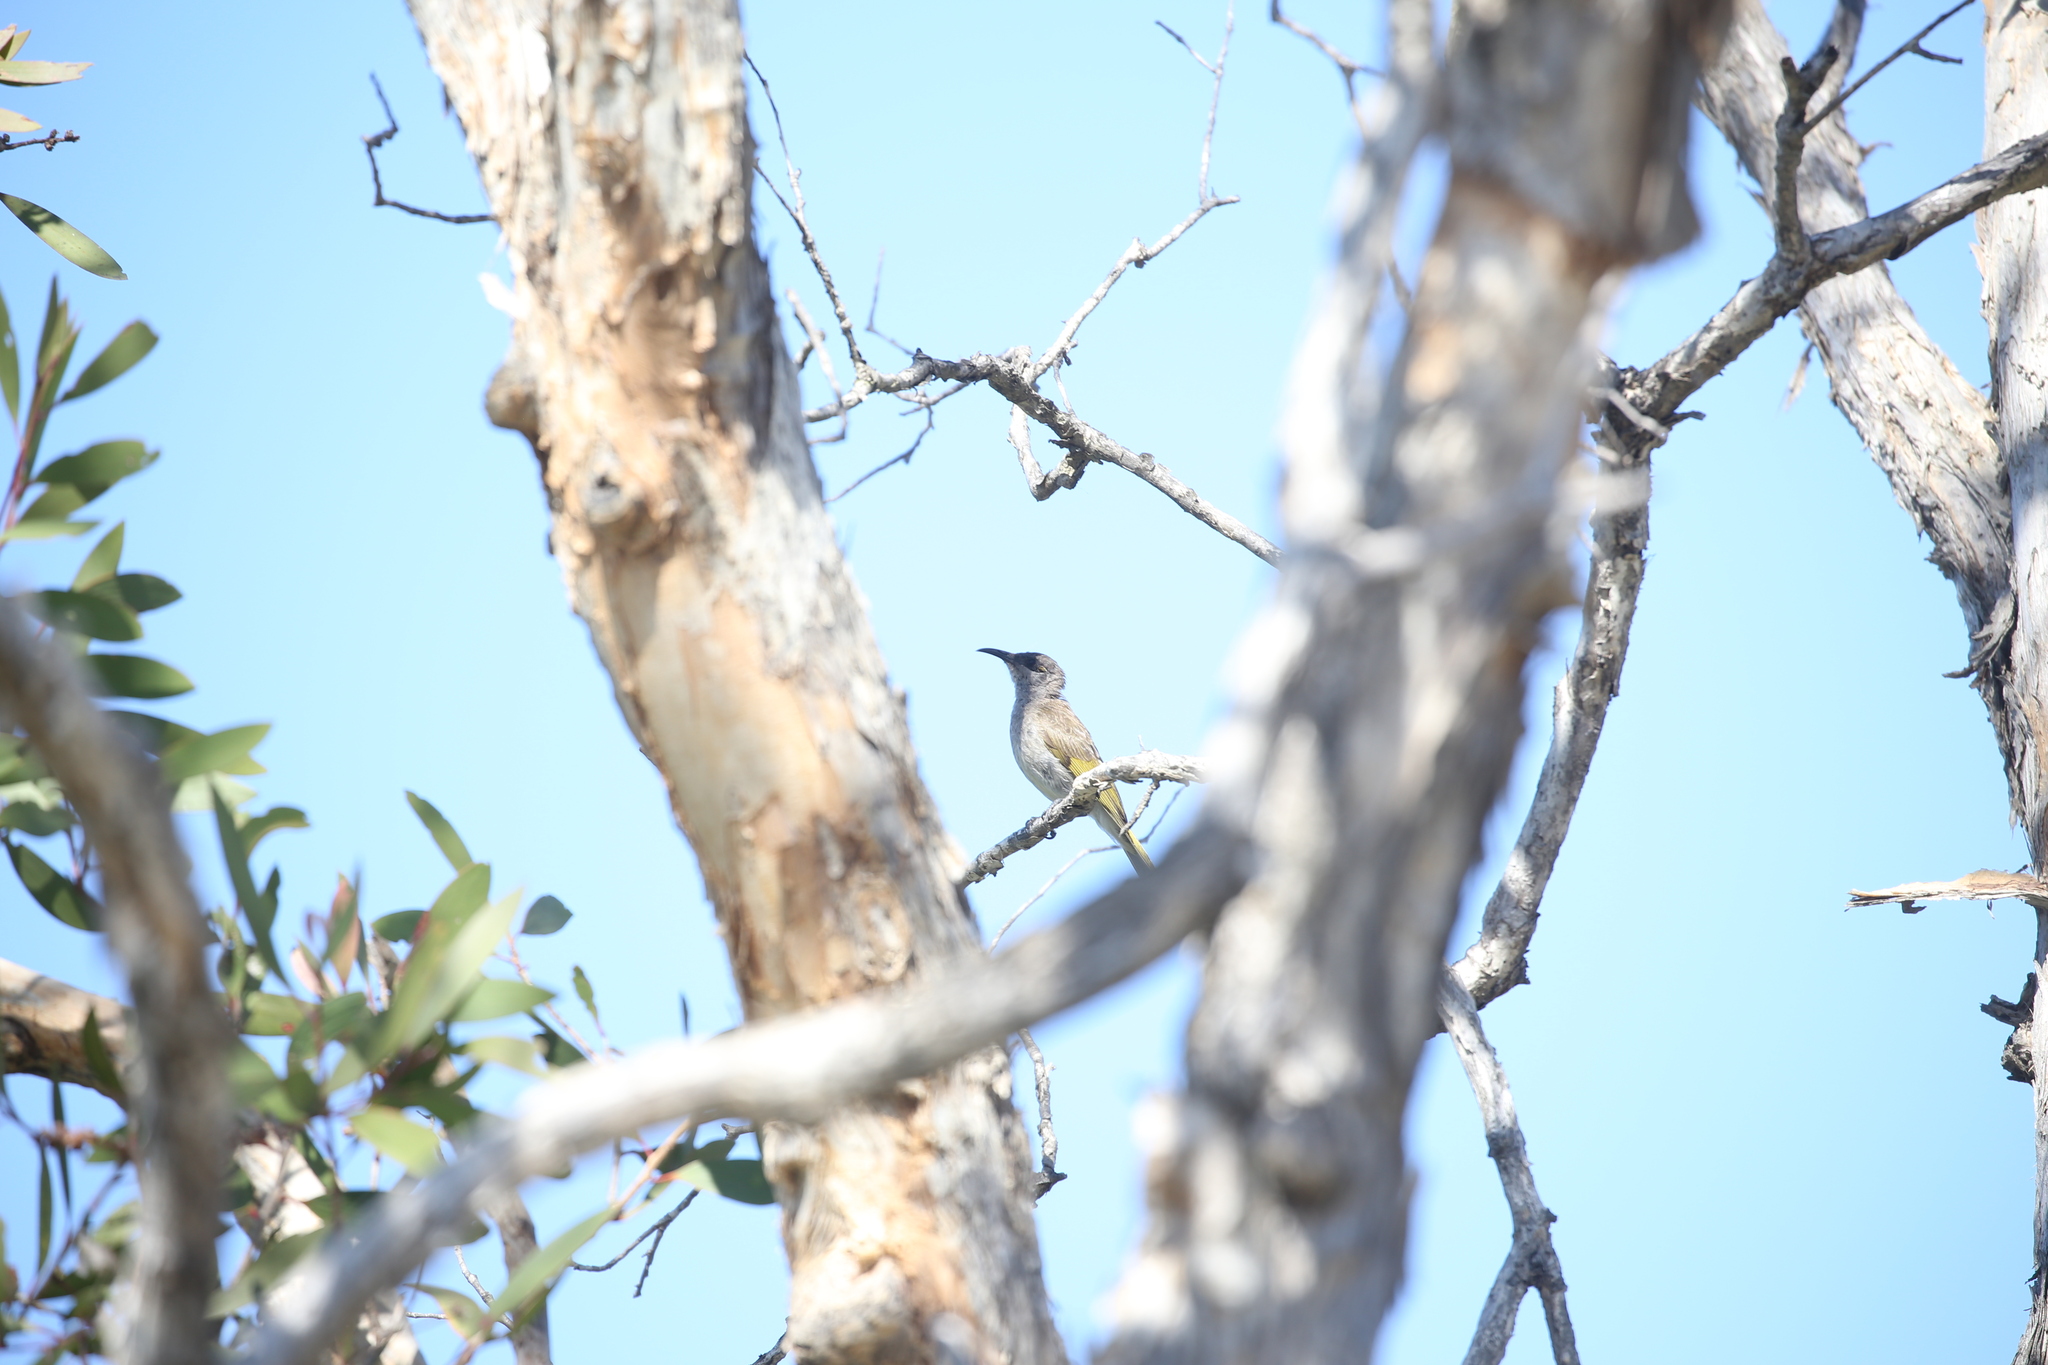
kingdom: Animalia
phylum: Chordata
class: Aves
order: Passeriformes
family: Meliphagidae
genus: Lichmera
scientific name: Lichmera indistincta
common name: Brown honeyeater
